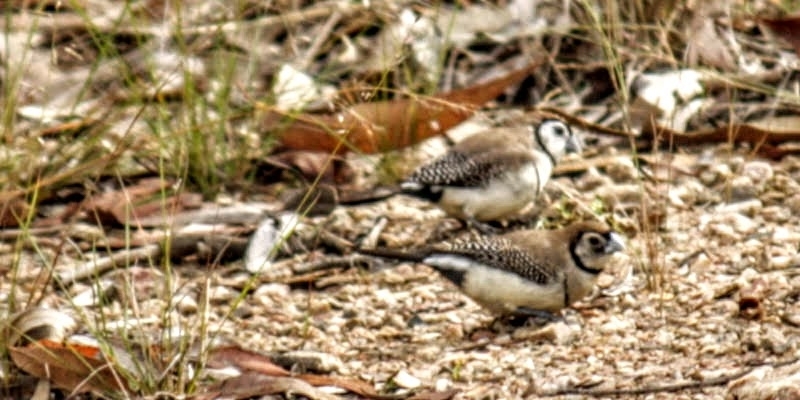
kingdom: Animalia
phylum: Chordata
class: Aves
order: Passeriformes
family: Estrildidae
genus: Taeniopygia
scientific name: Taeniopygia bichenovii
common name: Double-barred finch
